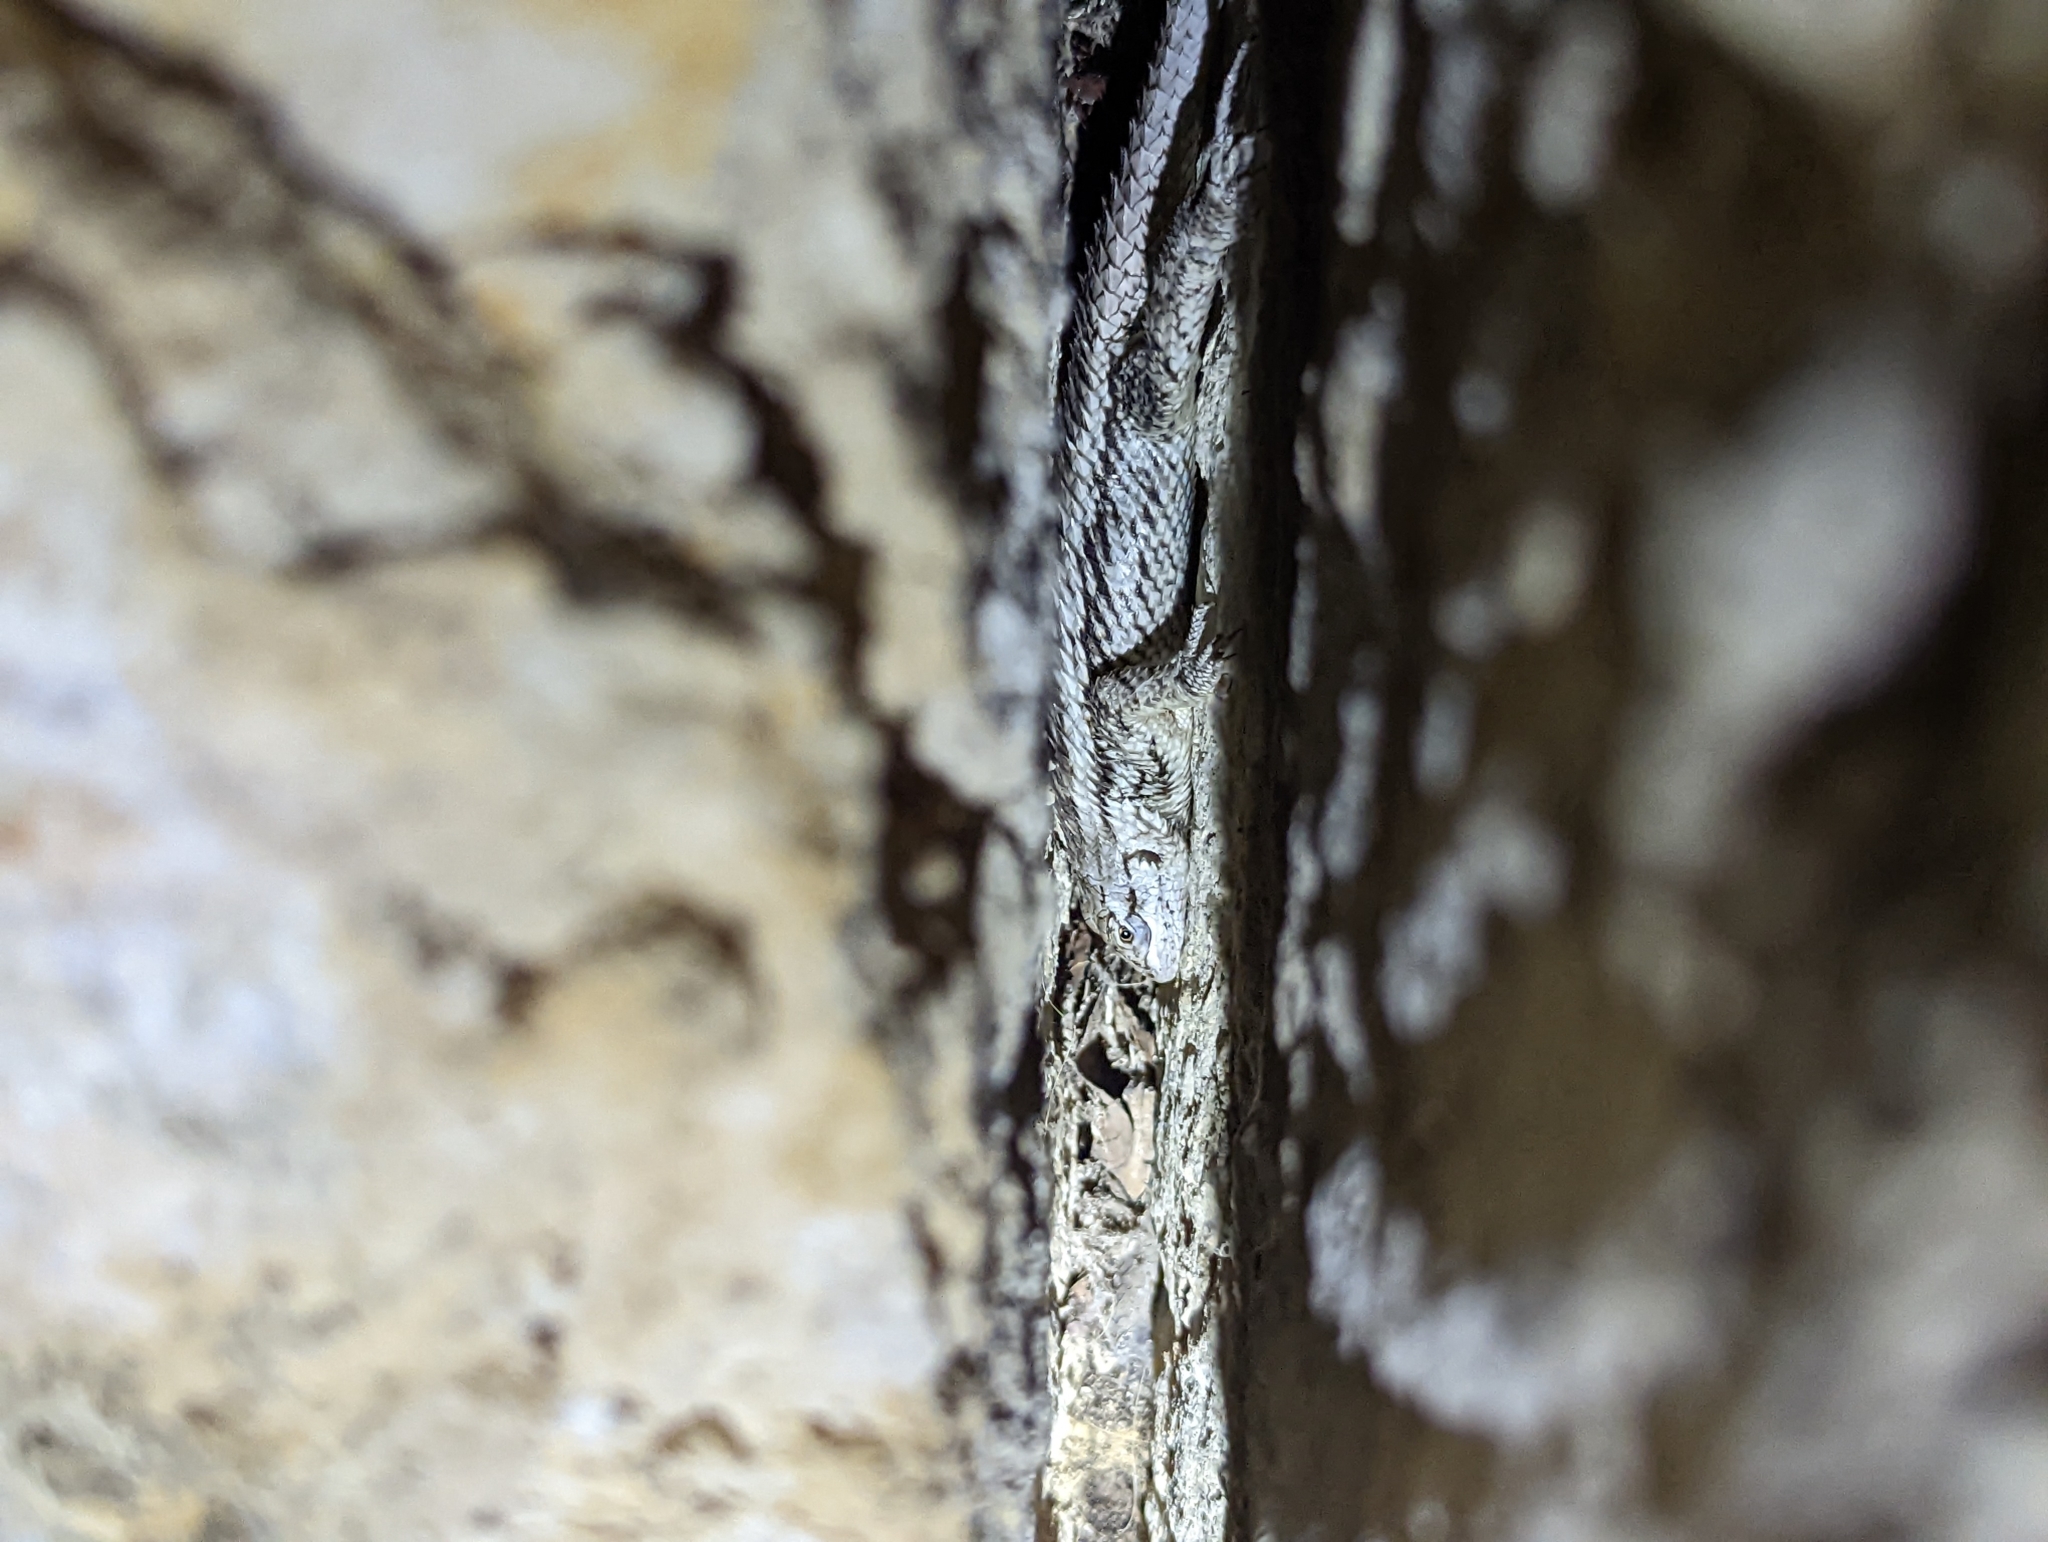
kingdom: Animalia
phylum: Chordata
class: Squamata
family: Phrynosomatidae
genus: Sceloporus
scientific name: Sceloporus olivaceus
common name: Texas spiny lizard
